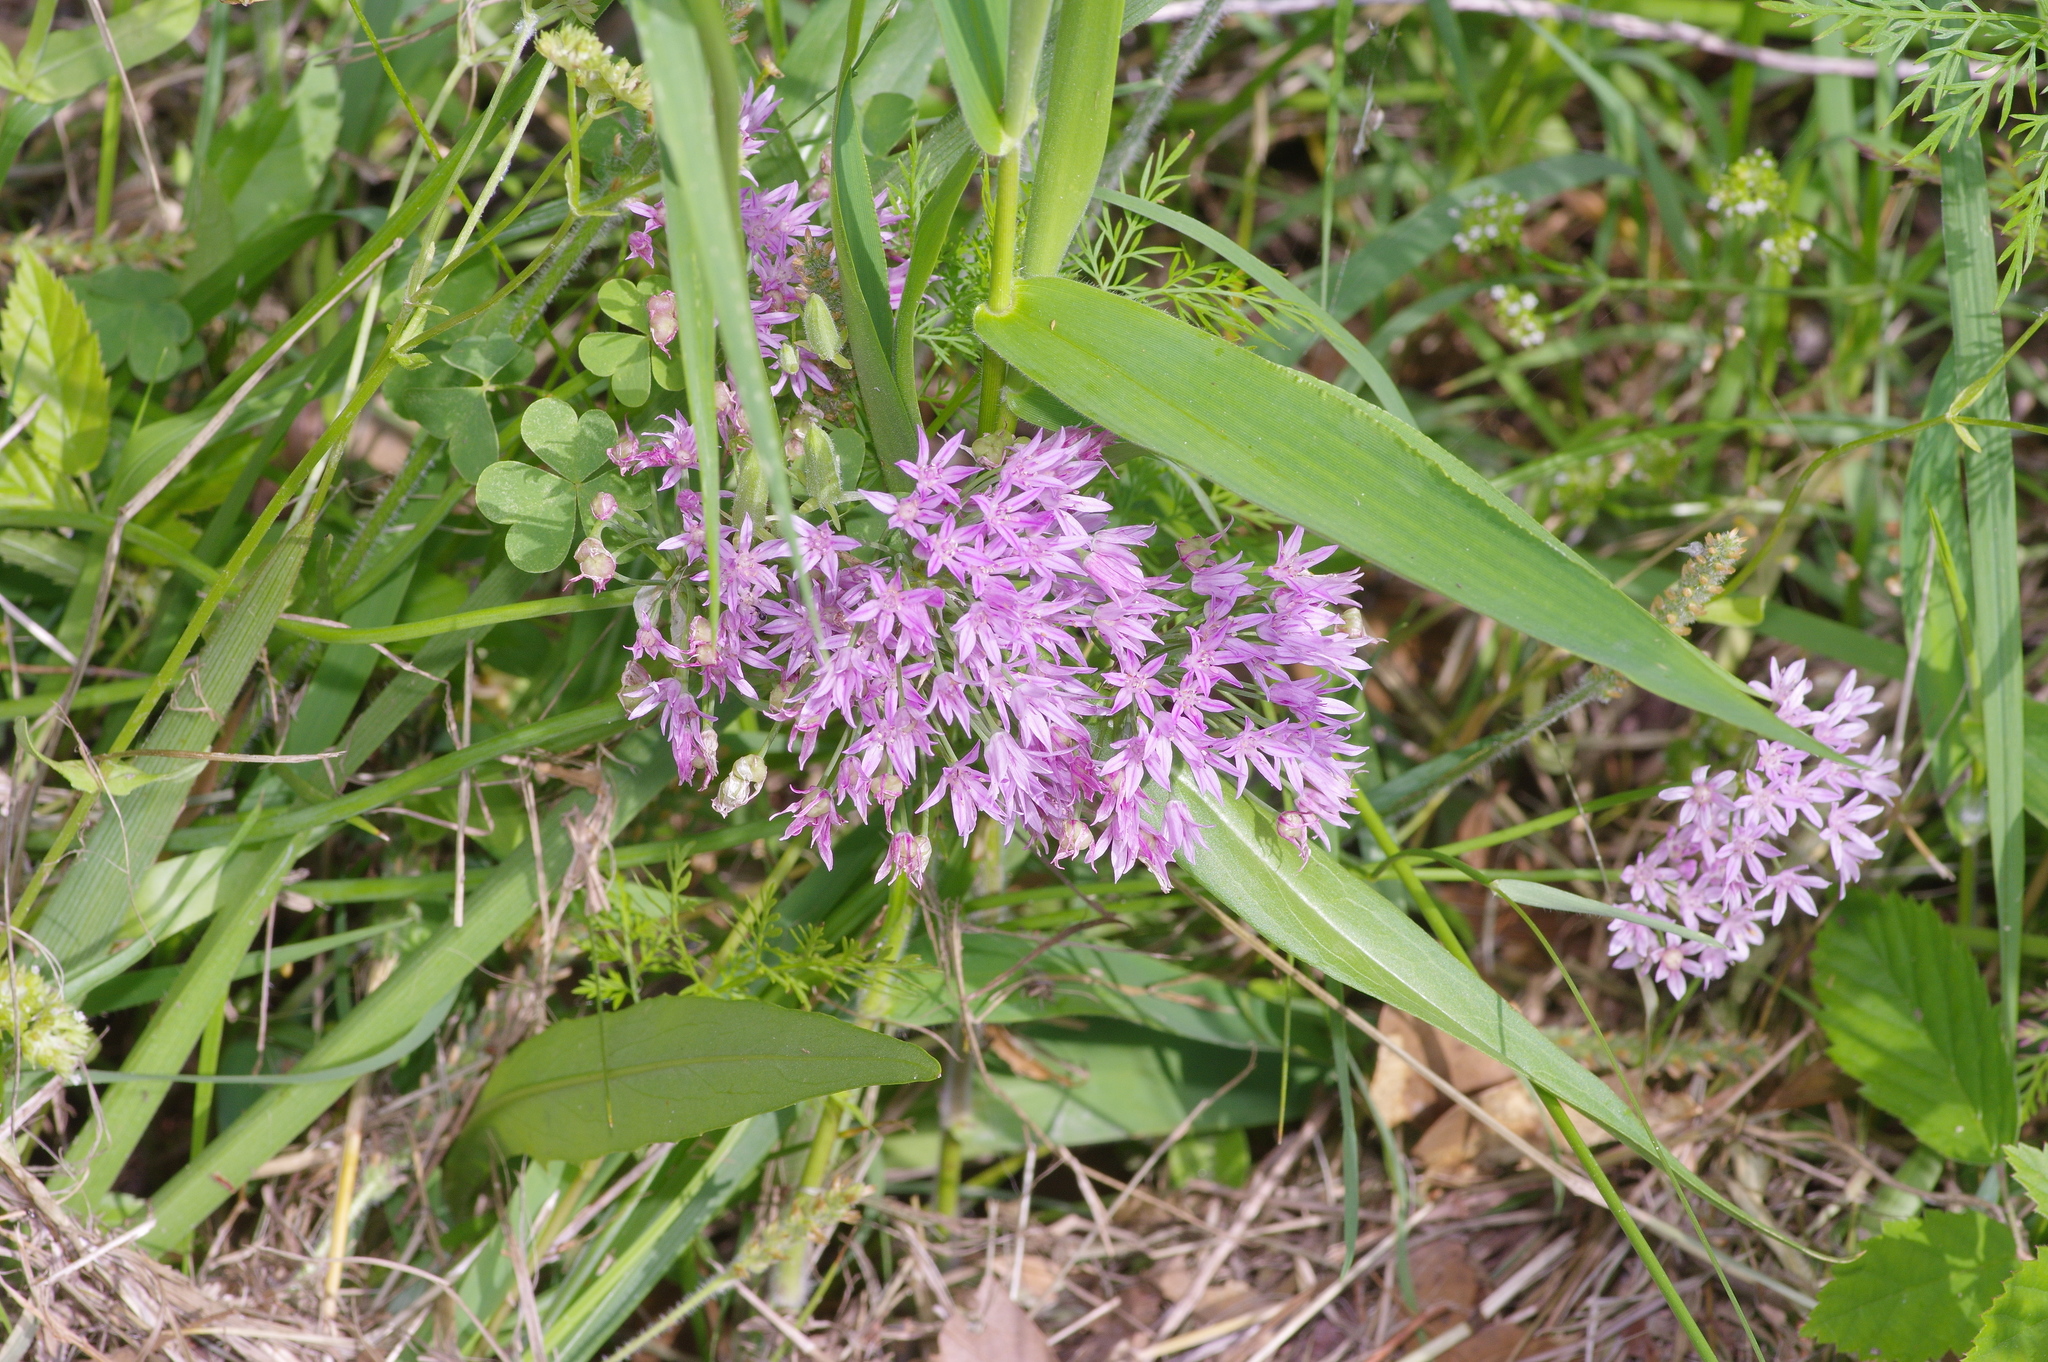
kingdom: Plantae
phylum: Tracheophyta
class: Liliopsida
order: Asparagales
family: Amaryllidaceae
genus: Allium
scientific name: Allium canadense
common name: Meadow garlic
